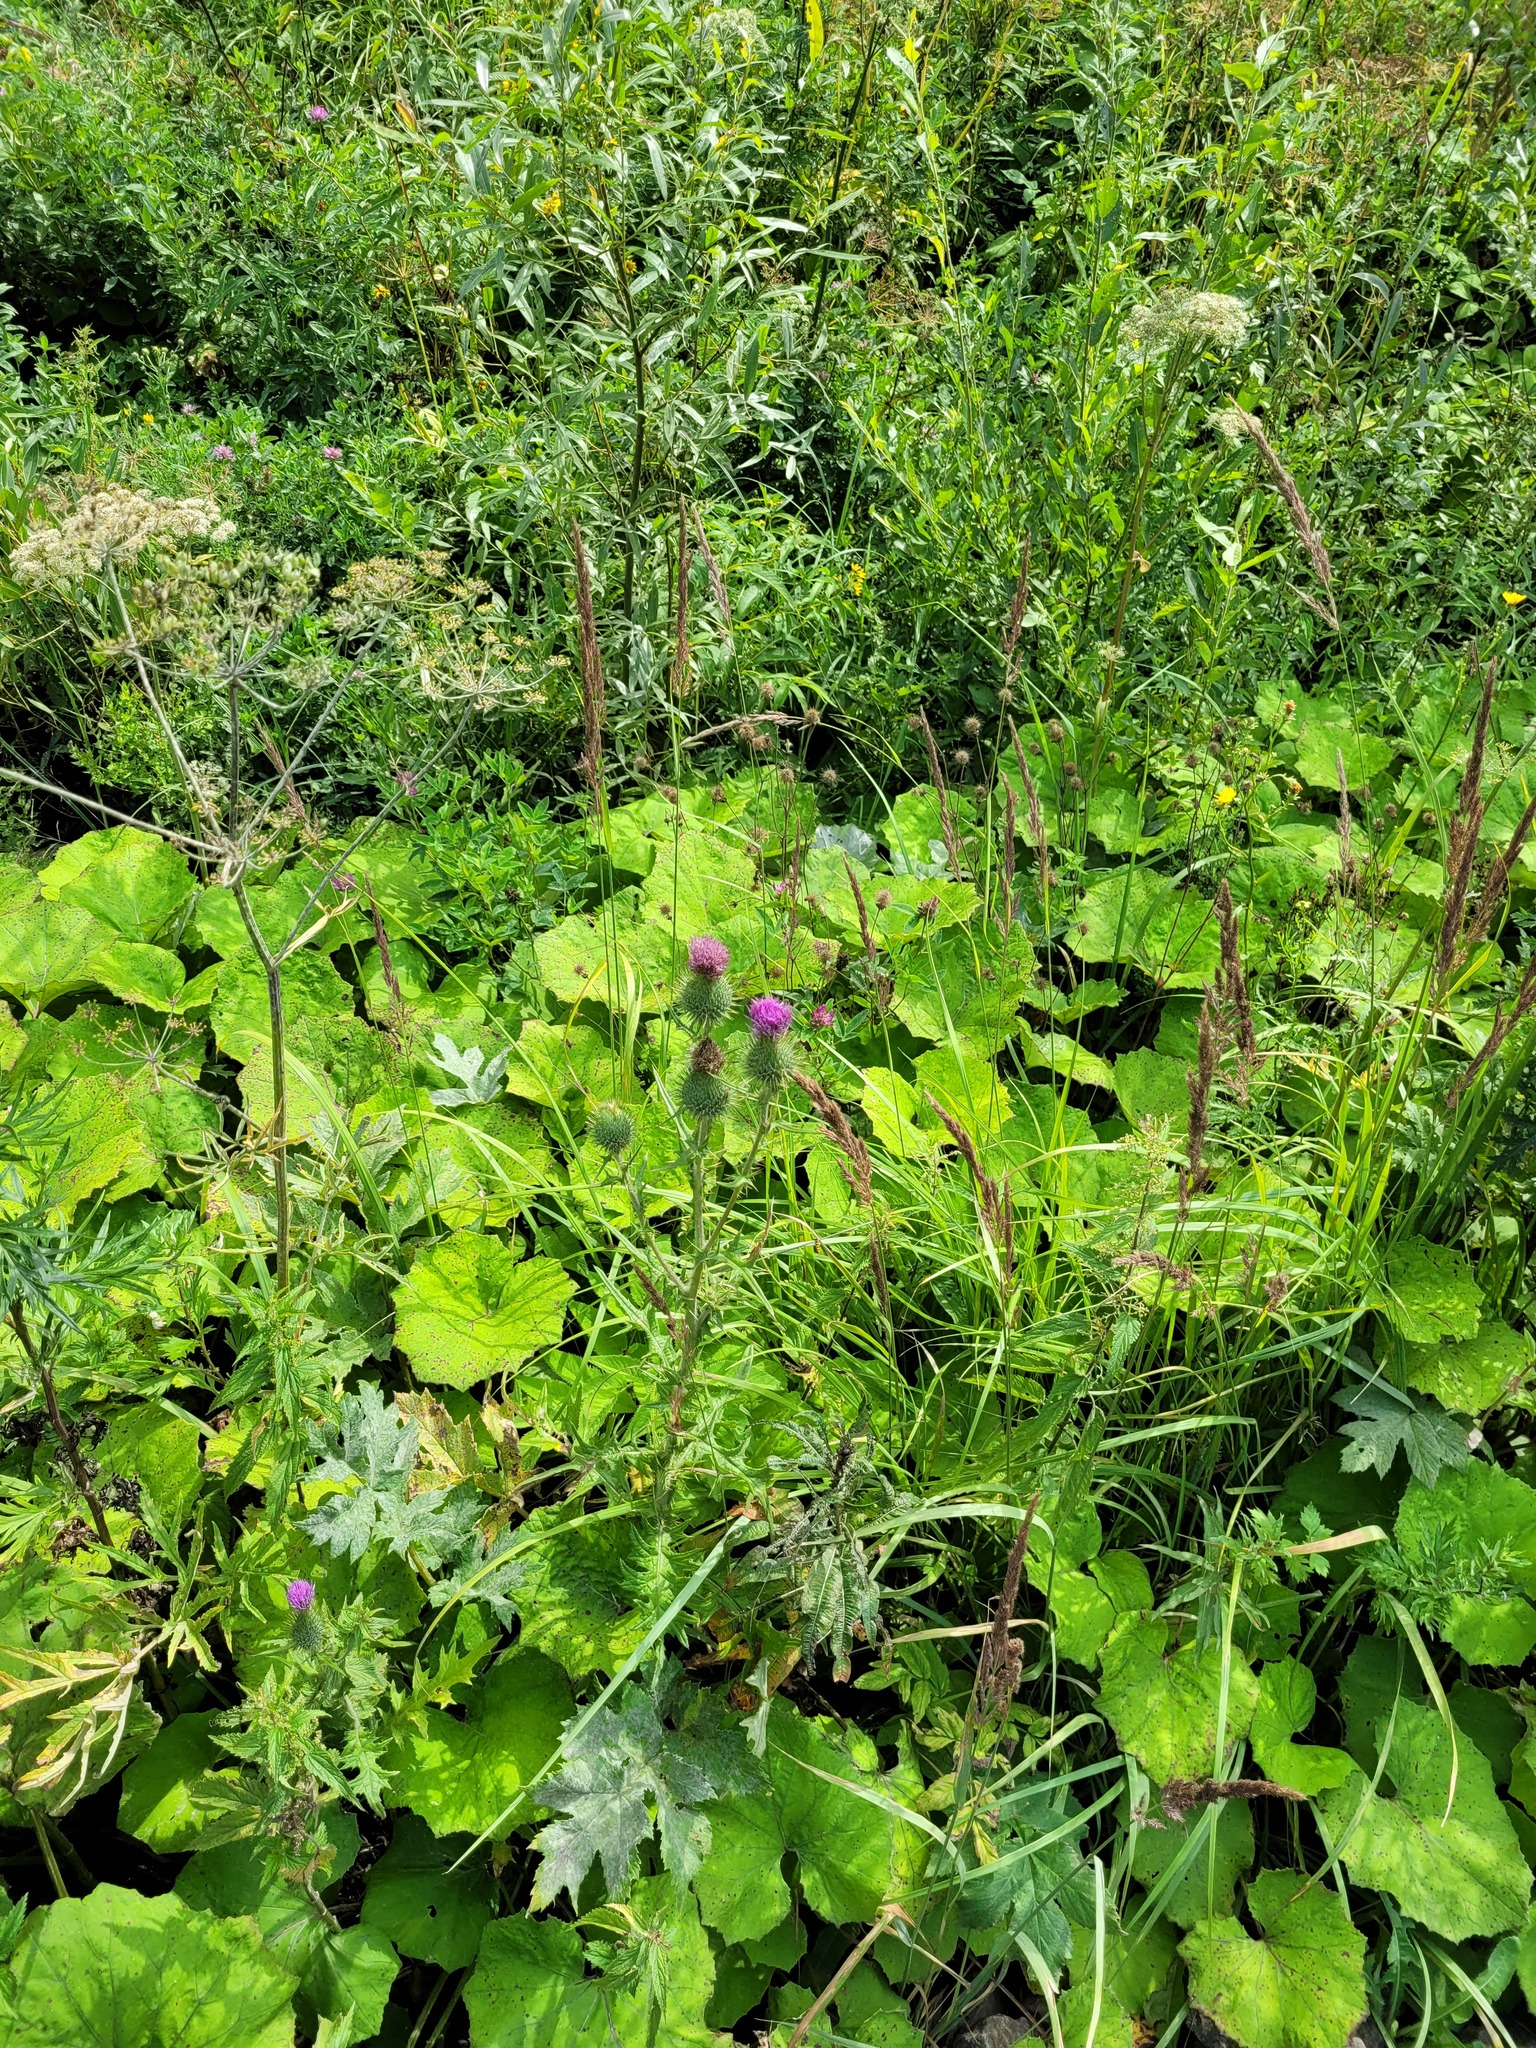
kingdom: Plantae
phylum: Tracheophyta
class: Magnoliopsida
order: Asterales
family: Asteraceae
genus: Cirsium
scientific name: Cirsium vulgare
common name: Bull thistle
